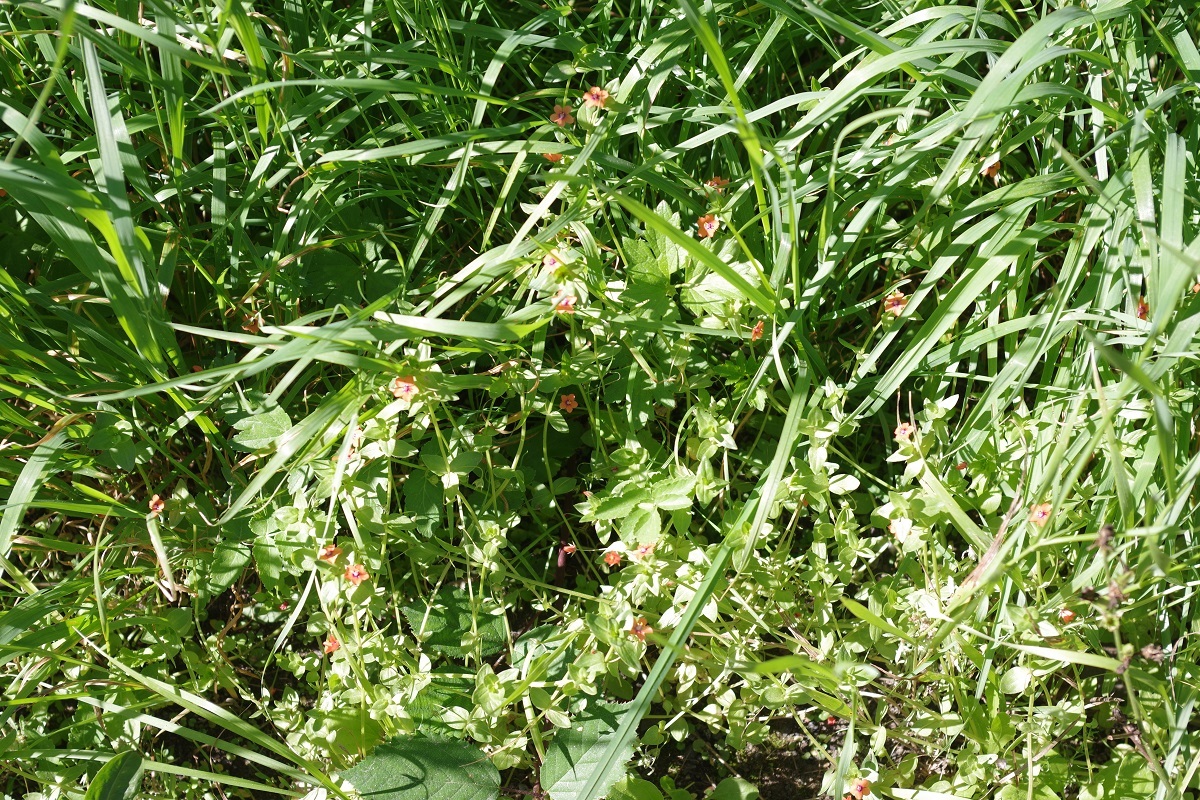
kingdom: Plantae
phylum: Tracheophyta
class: Magnoliopsida
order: Ericales
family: Primulaceae
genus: Lysimachia
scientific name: Lysimachia arvensis
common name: Scarlet pimpernel
